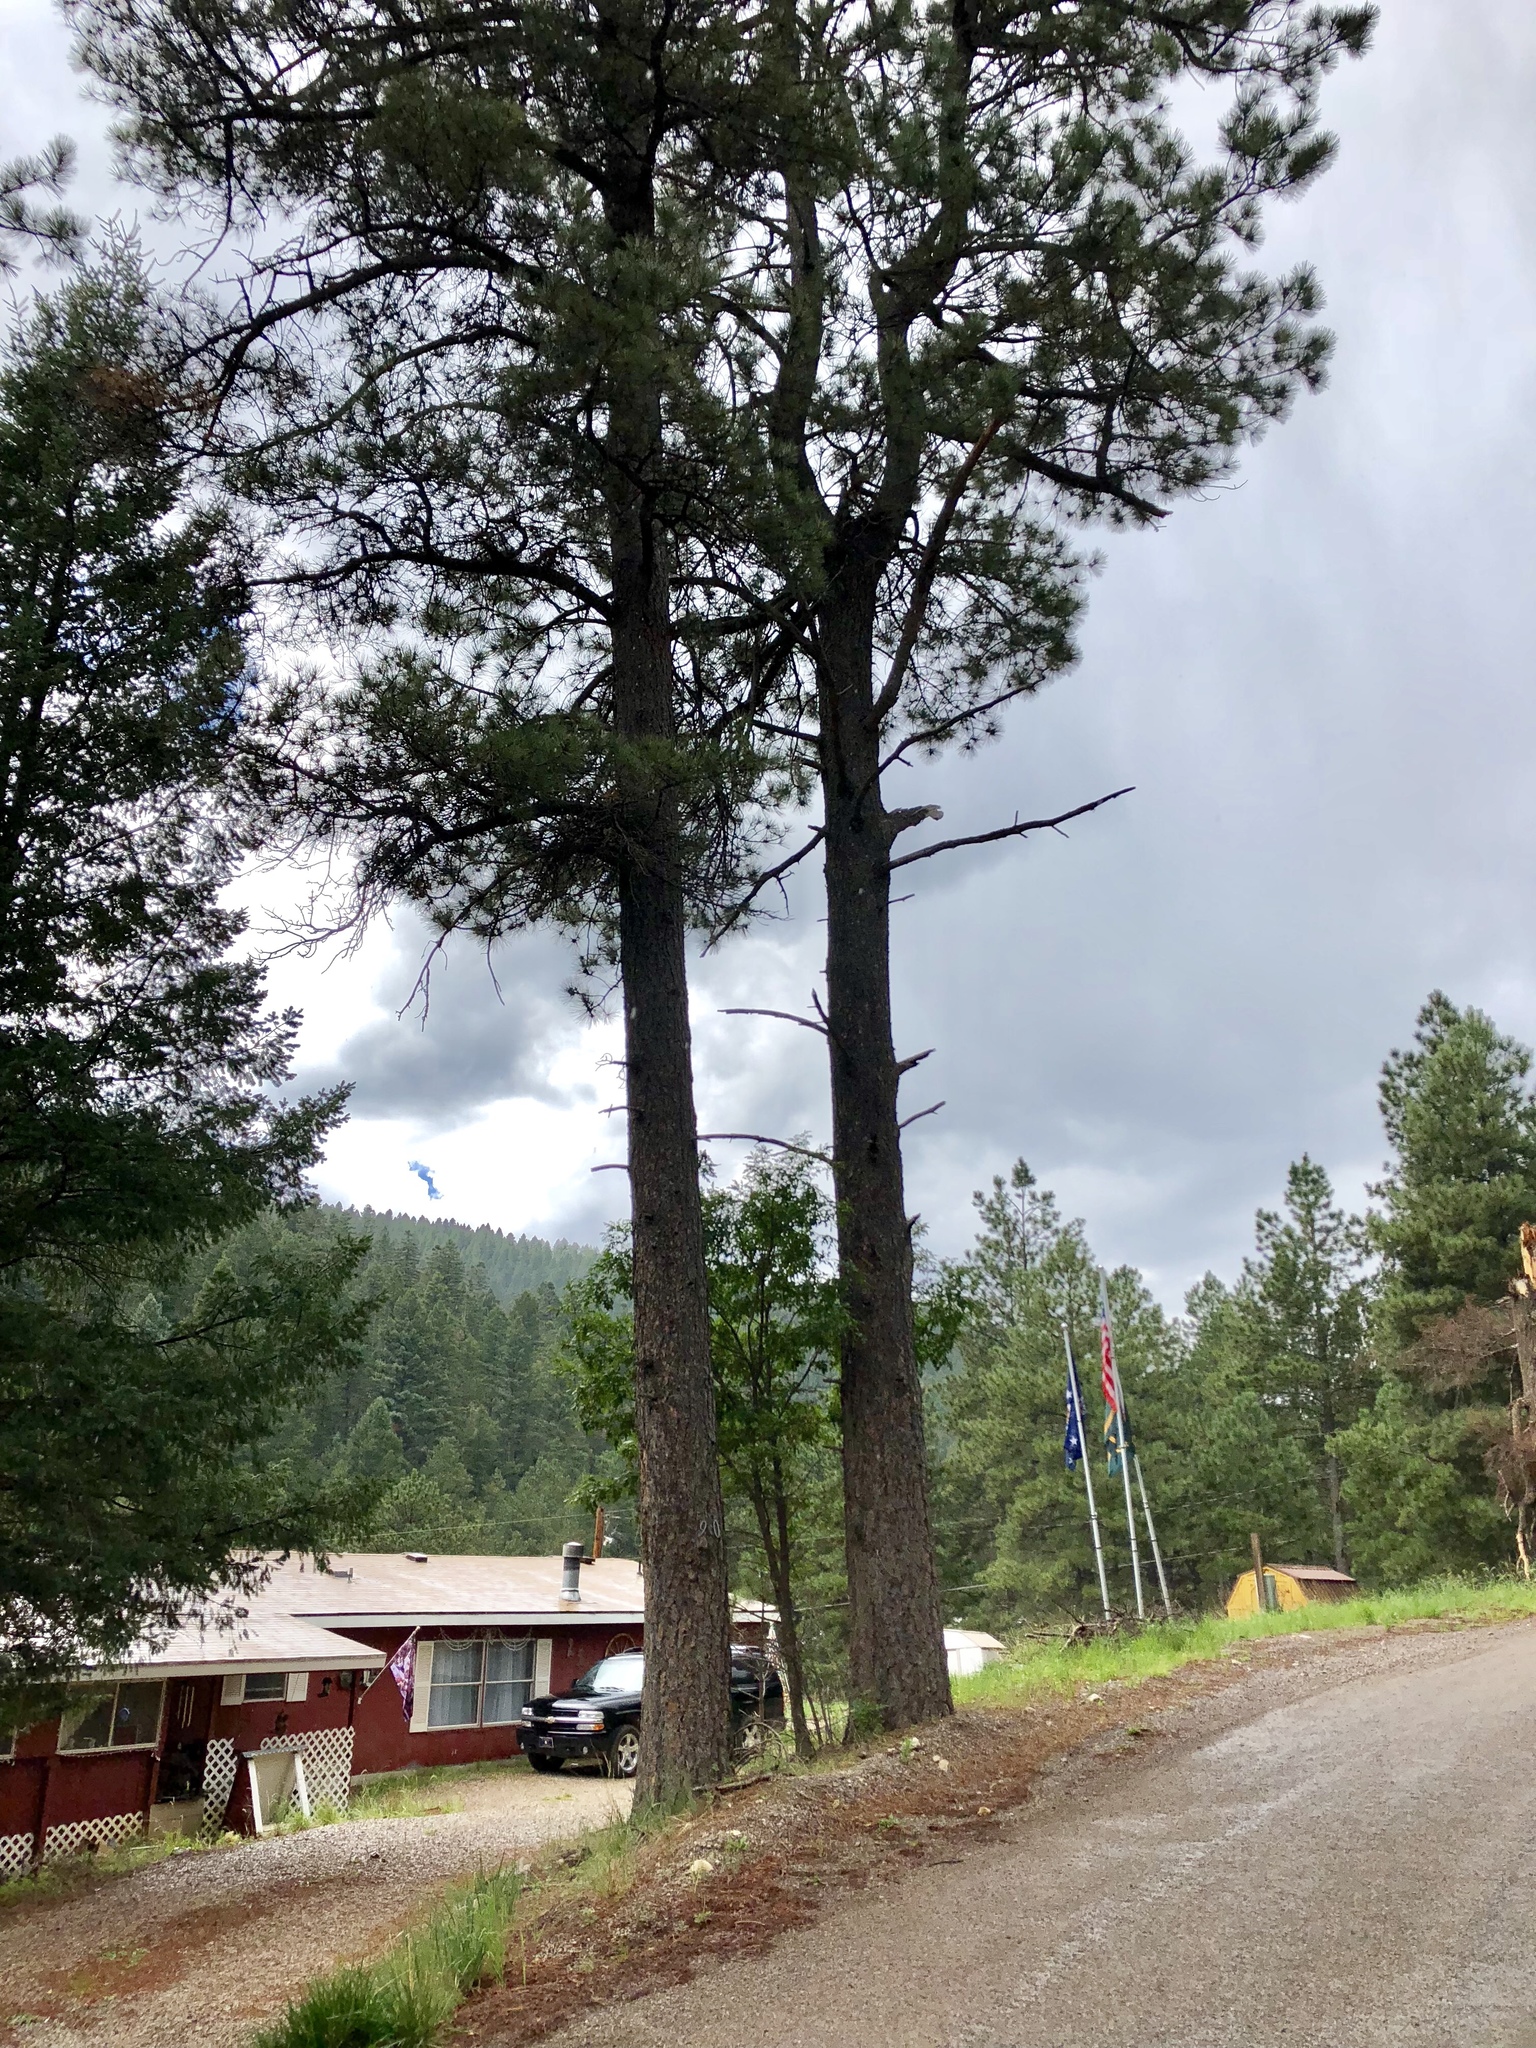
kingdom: Plantae
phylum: Tracheophyta
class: Pinopsida
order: Pinales
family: Pinaceae
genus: Pinus
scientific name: Pinus ponderosa
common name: Western yellow-pine
